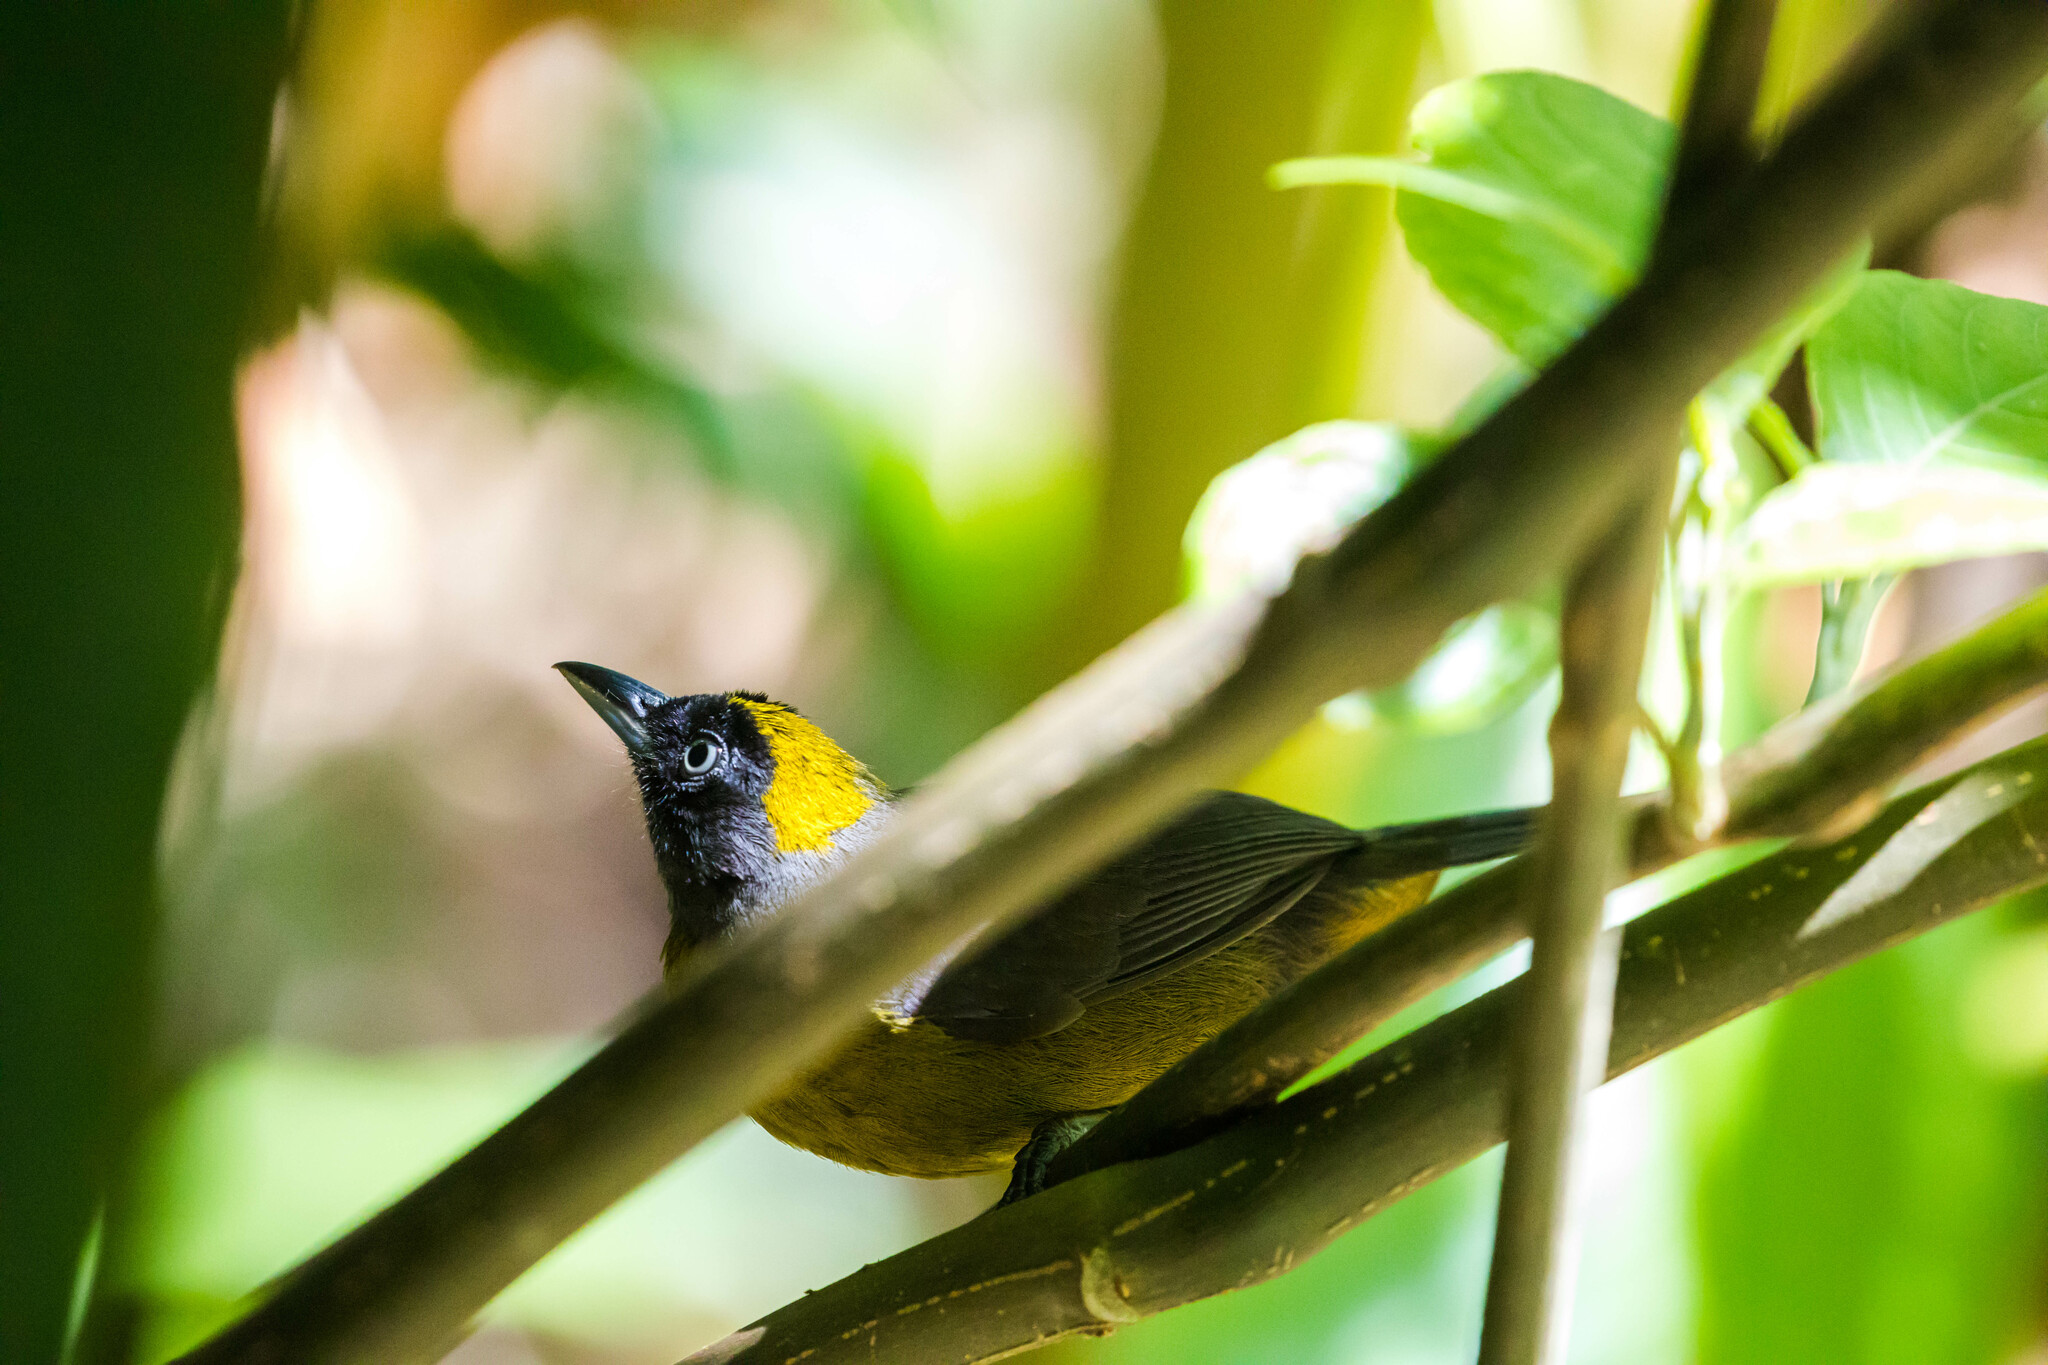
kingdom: Animalia
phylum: Chordata
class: Aves
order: Passeriformes
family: Mitrospingidae
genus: Mitrospingus
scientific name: Mitrospingus cassinii
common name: Dusky-faced tanager
